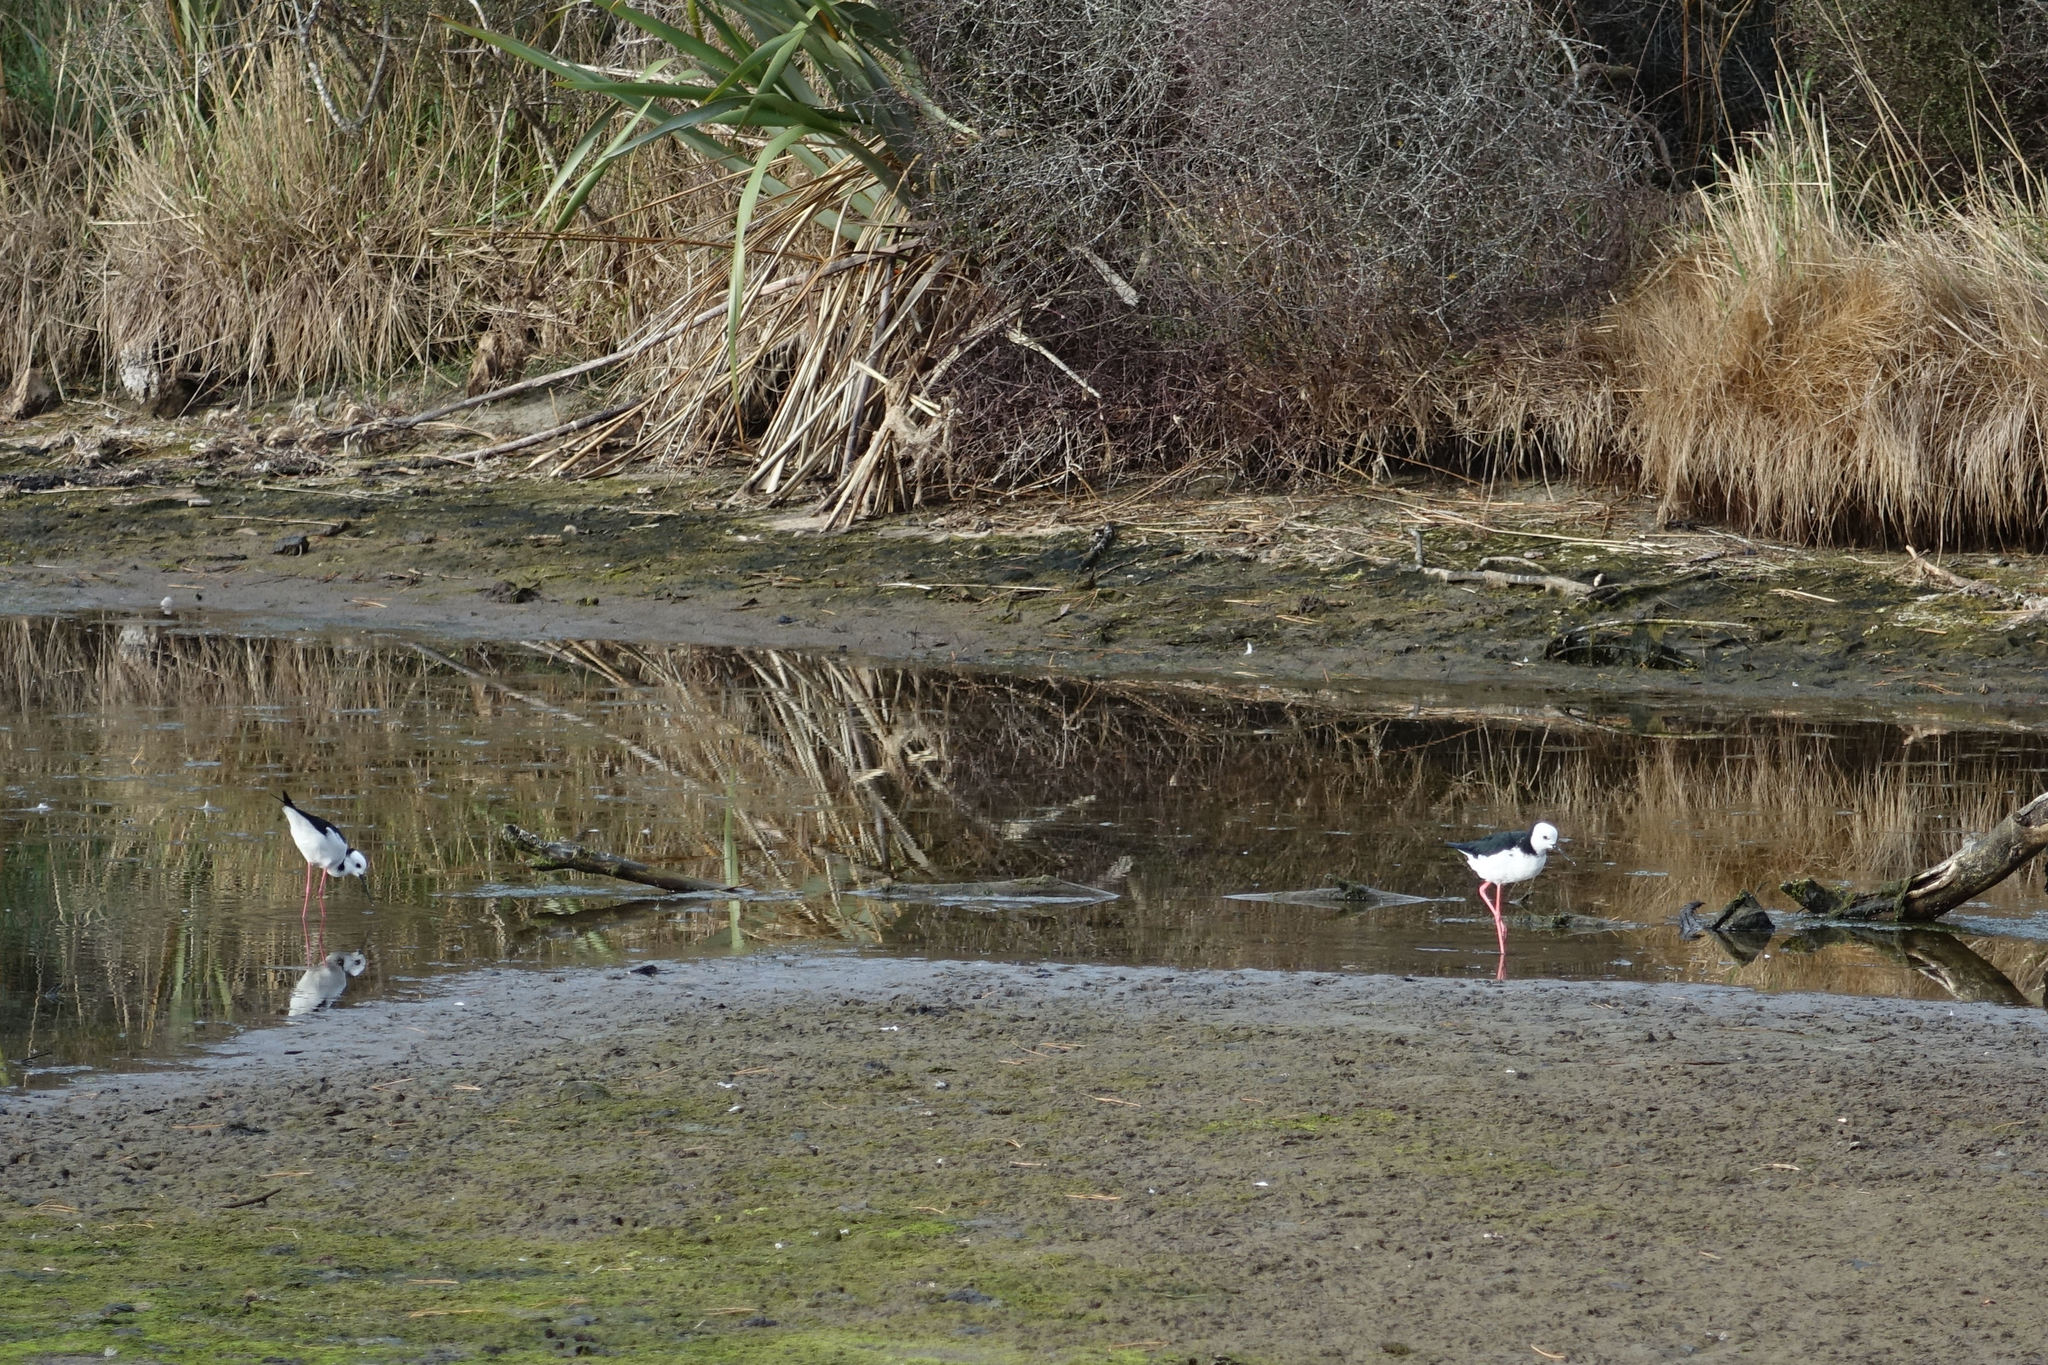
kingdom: Animalia
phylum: Chordata
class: Aves
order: Charadriiformes
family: Recurvirostridae
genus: Himantopus
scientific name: Himantopus leucocephalus
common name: White-headed stilt
